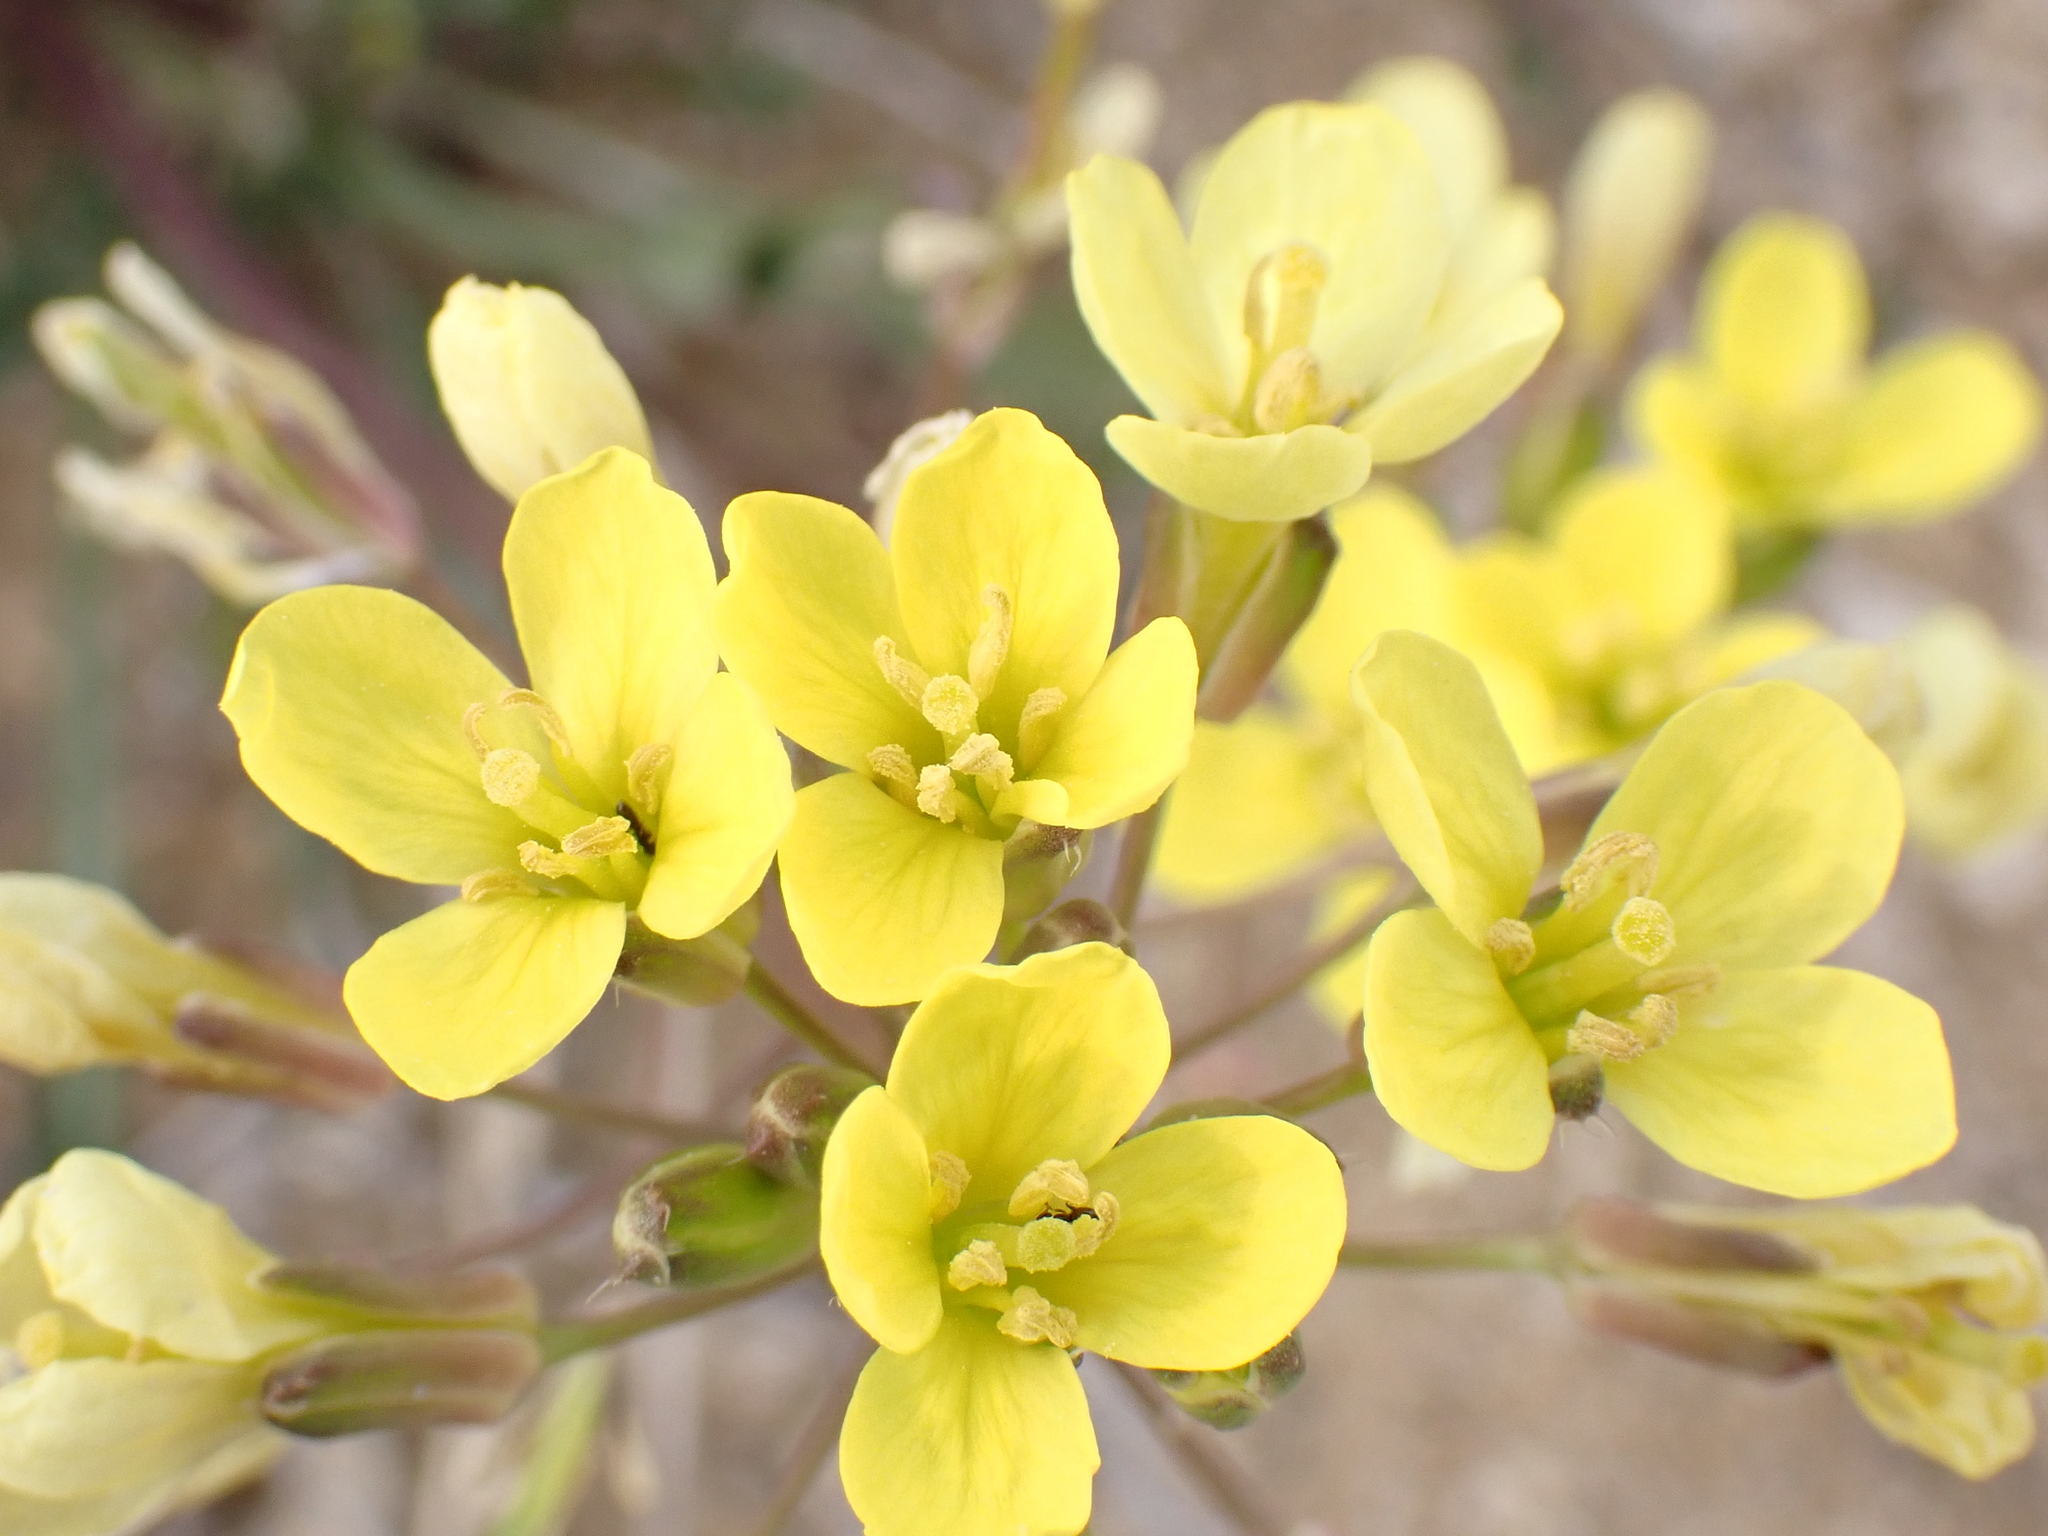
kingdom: Plantae
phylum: Tracheophyta
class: Magnoliopsida
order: Brassicales
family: Brassicaceae
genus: Brassica
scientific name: Brassica repanda
